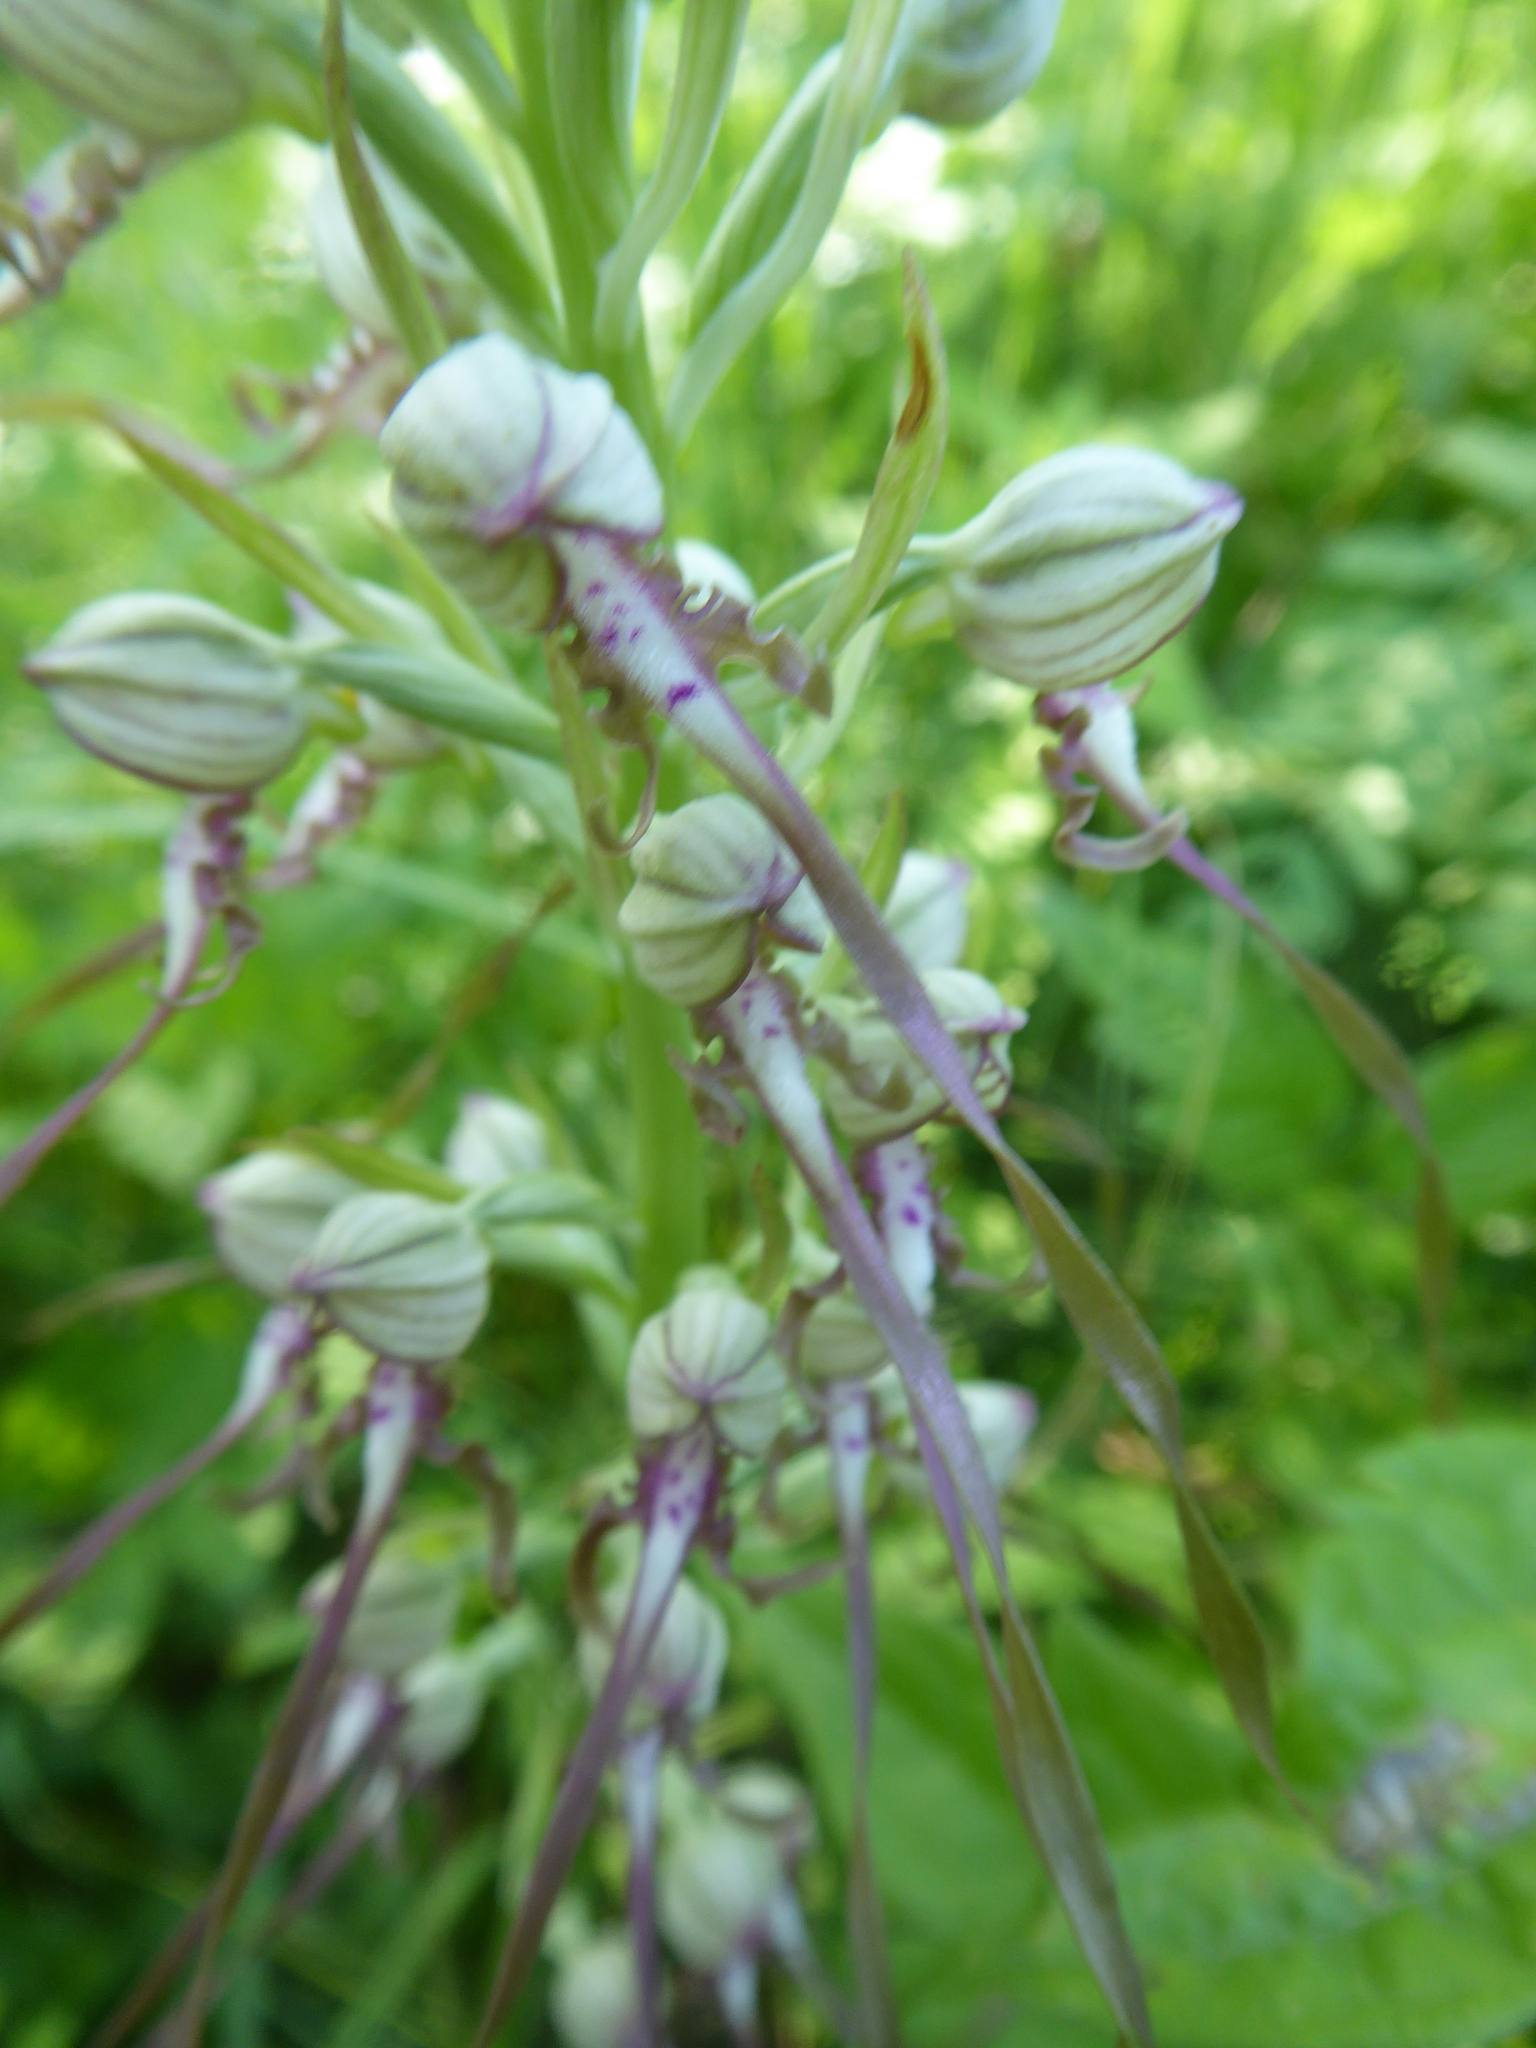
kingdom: Plantae
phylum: Tracheophyta
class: Liliopsida
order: Asparagales
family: Orchidaceae
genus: Himantoglossum
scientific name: Himantoglossum adriaticum
